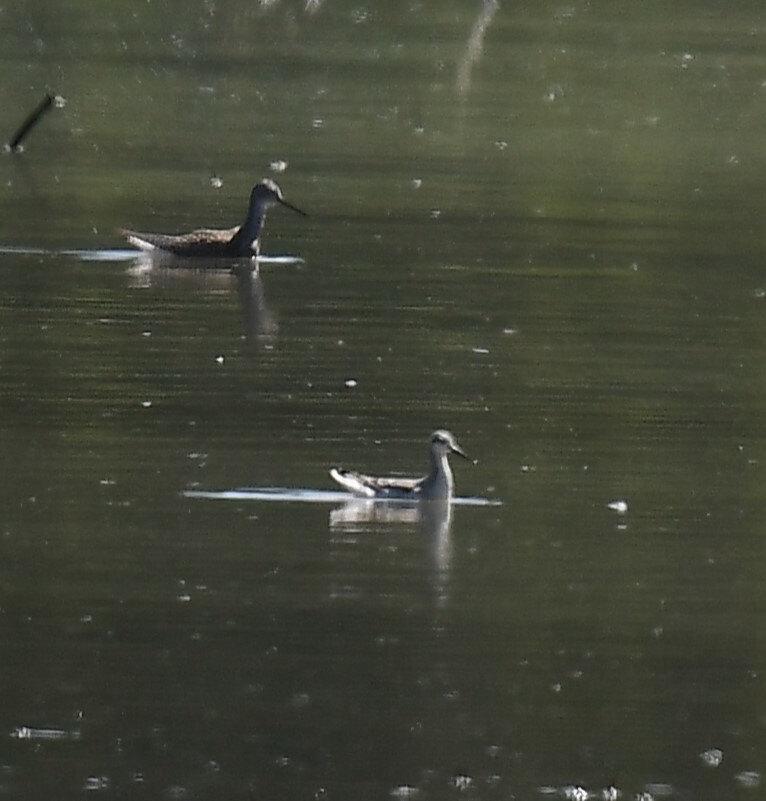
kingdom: Animalia
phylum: Chordata
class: Aves
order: Charadriiformes
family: Scolopacidae
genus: Phalaropus
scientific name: Phalaropus tricolor
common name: Wilson's phalarope
